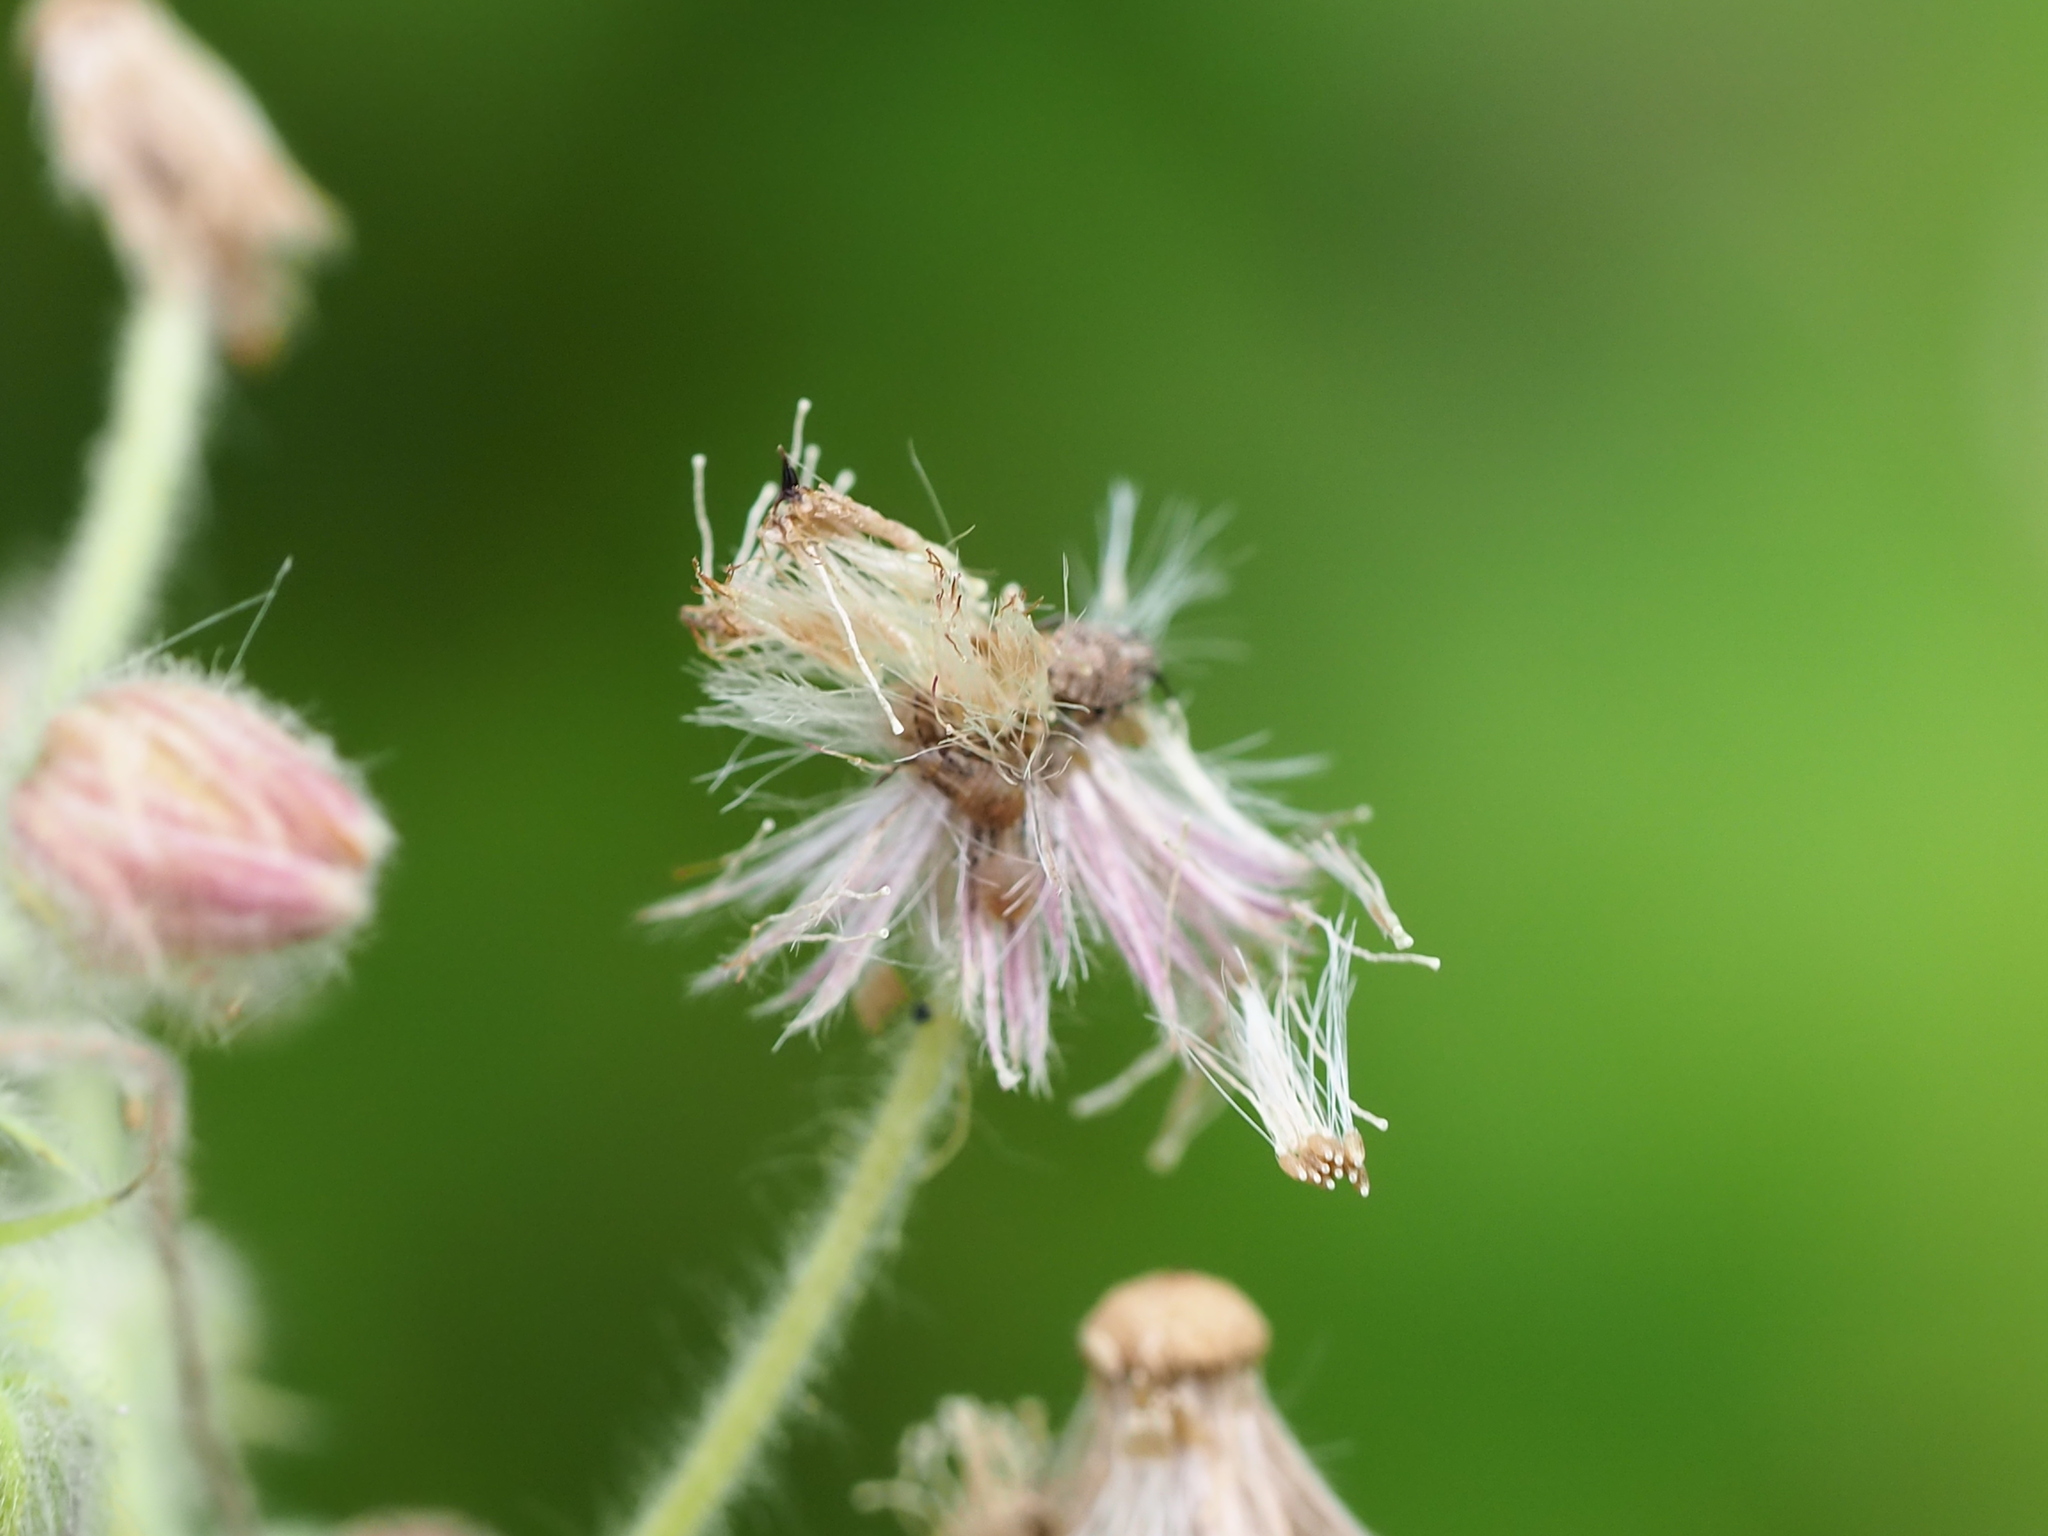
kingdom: Plantae
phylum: Tracheophyta
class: Magnoliopsida
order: Asterales
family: Asteraceae
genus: Blumea
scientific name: Blumea axillaris
